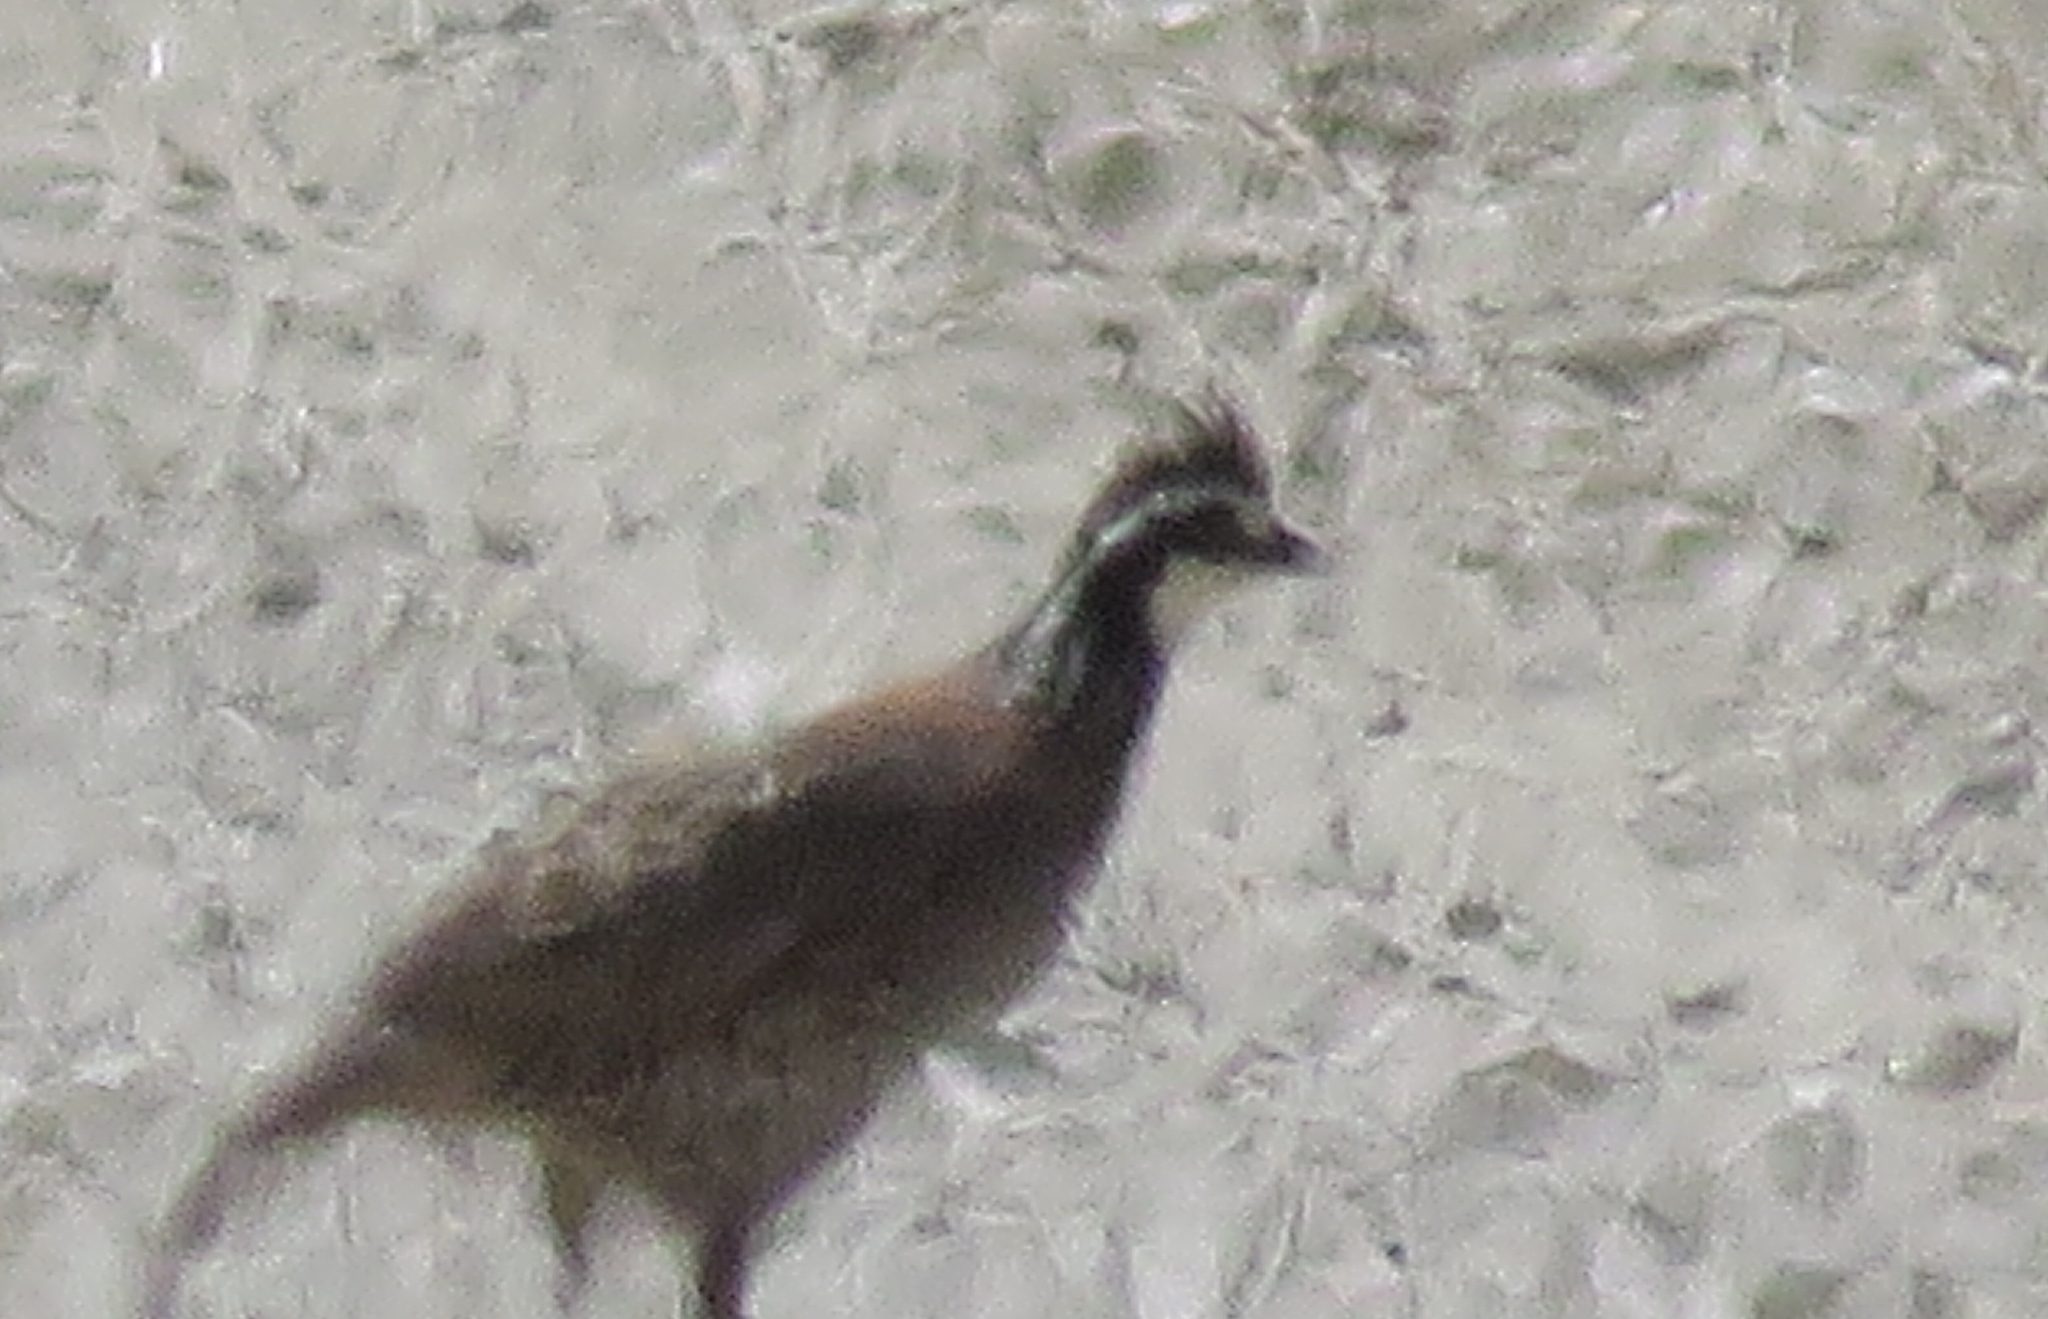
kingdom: Animalia
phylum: Chordata
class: Aves
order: Galliformes
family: Odontophoridae
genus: Colinus
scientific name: Colinus virginianus
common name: Northern bobwhite
